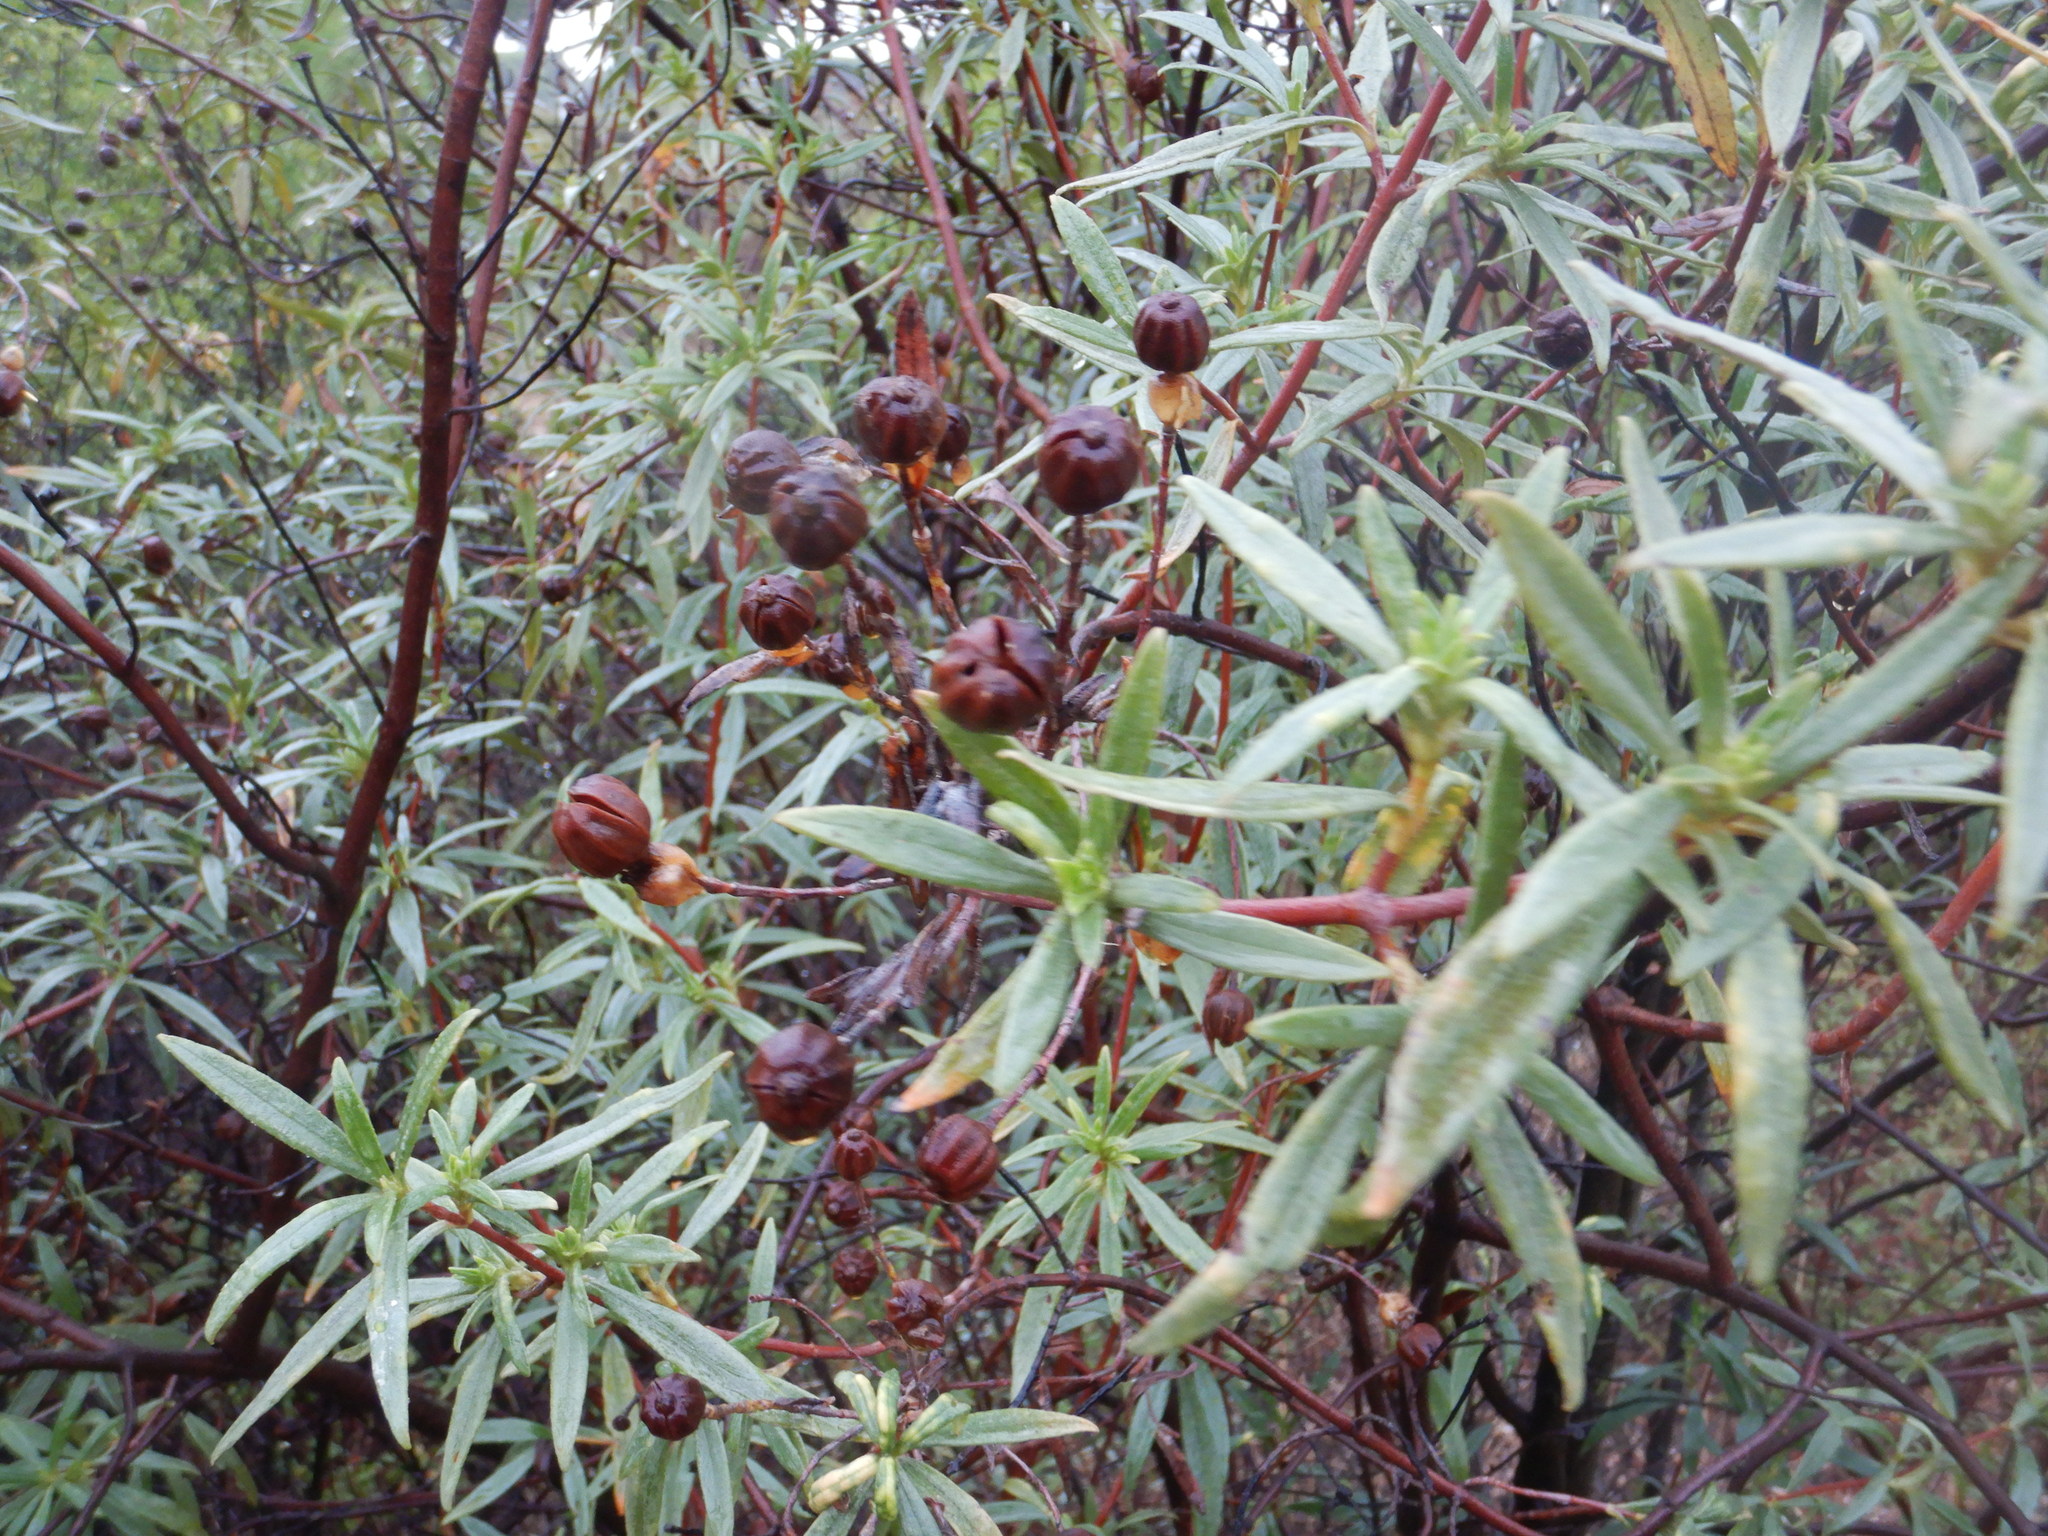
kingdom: Plantae
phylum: Tracheophyta
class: Magnoliopsida
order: Malvales
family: Cistaceae
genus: Cistus
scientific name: Cistus ladanifer
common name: Common gum cistus
